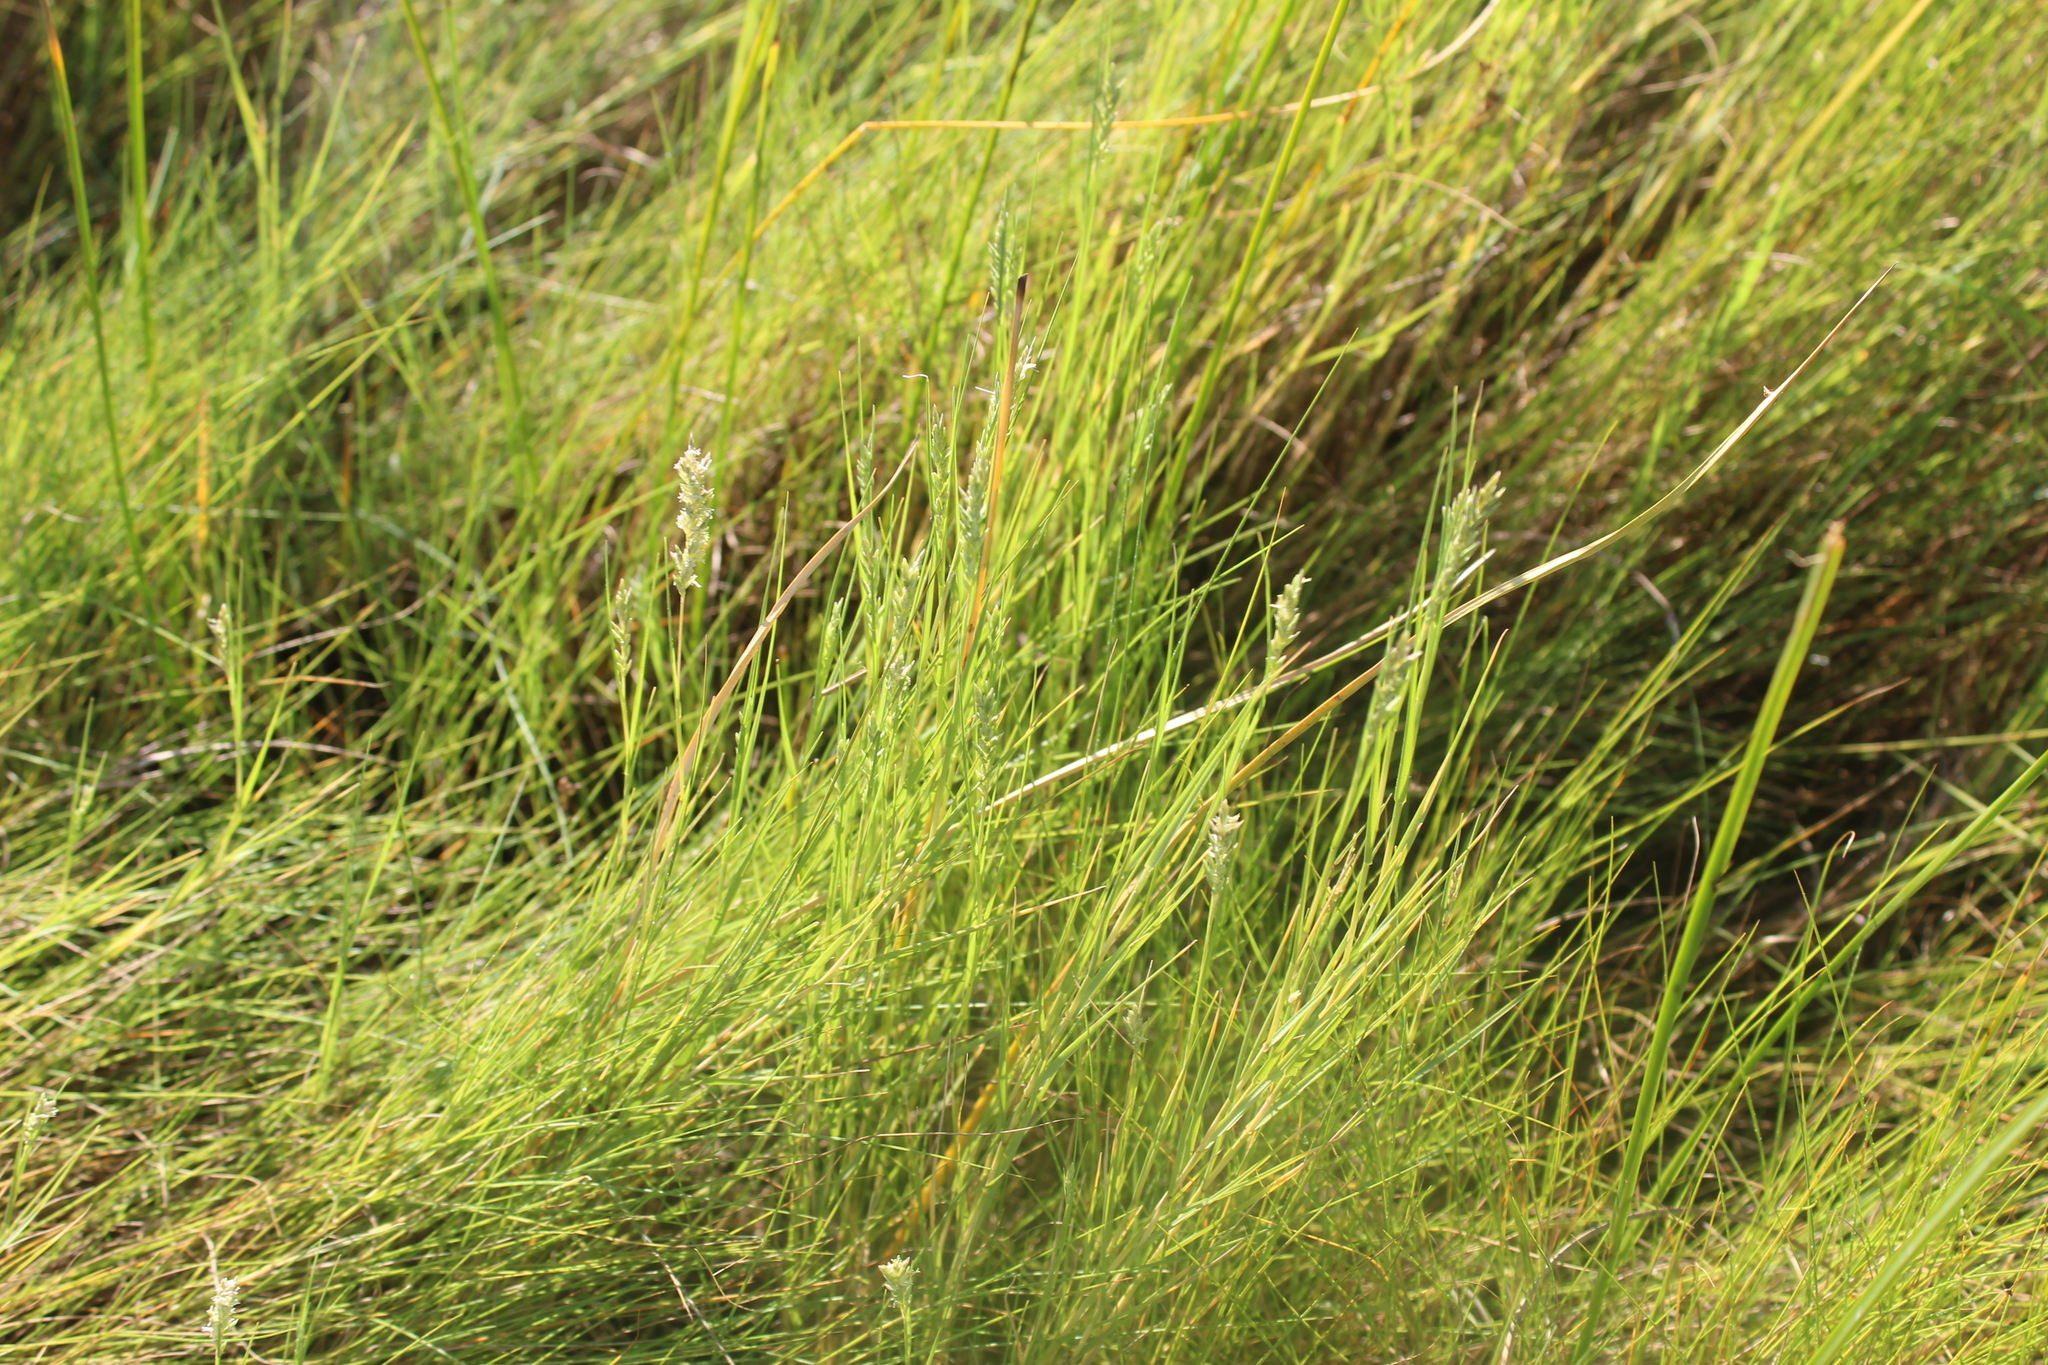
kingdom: Plantae
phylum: Tracheophyta
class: Liliopsida
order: Poales
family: Poaceae
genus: Distichlis
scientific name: Distichlis spicata
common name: Saltgrass
